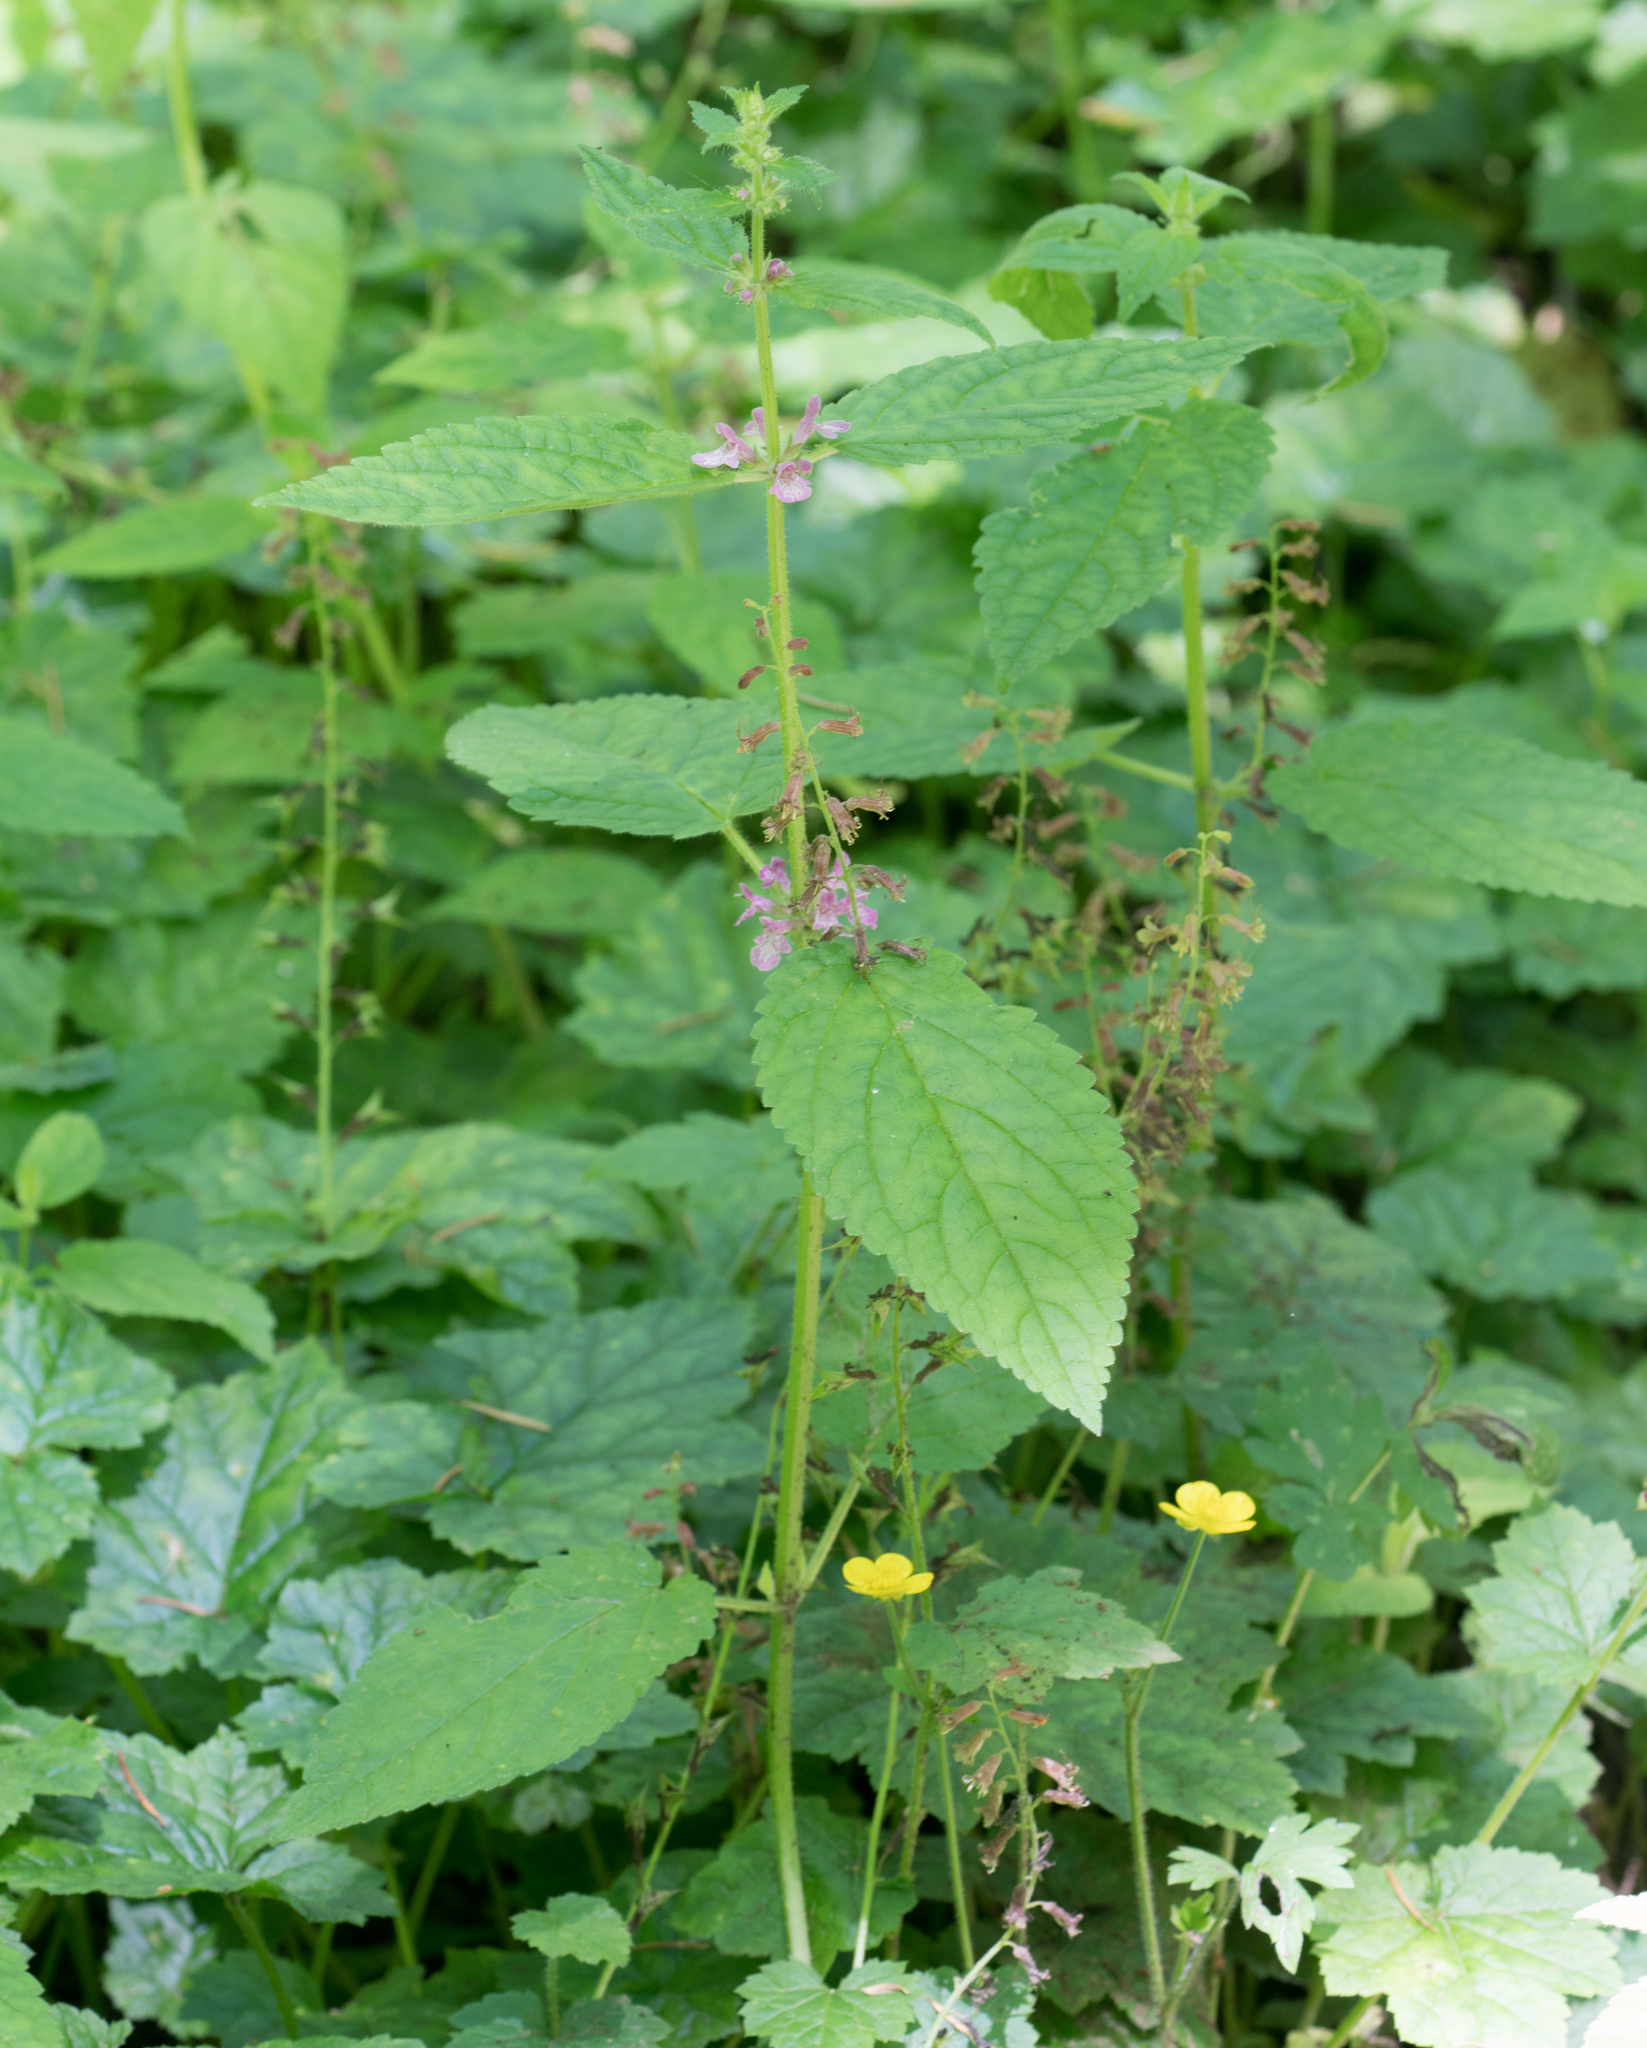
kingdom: Plantae
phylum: Tracheophyta
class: Magnoliopsida
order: Lamiales
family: Lamiaceae
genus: Stachys
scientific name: Stachys mexicana
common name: Mexican hedge-nettle
